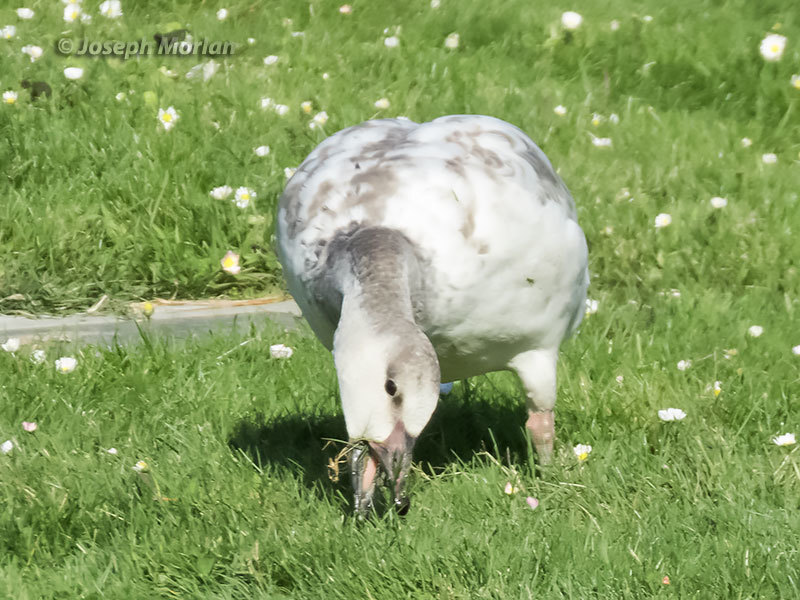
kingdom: Animalia
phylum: Chordata
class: Aves
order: Anseriformes
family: Anatidae
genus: Anser
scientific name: Anser caerulescens
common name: Snow goose
